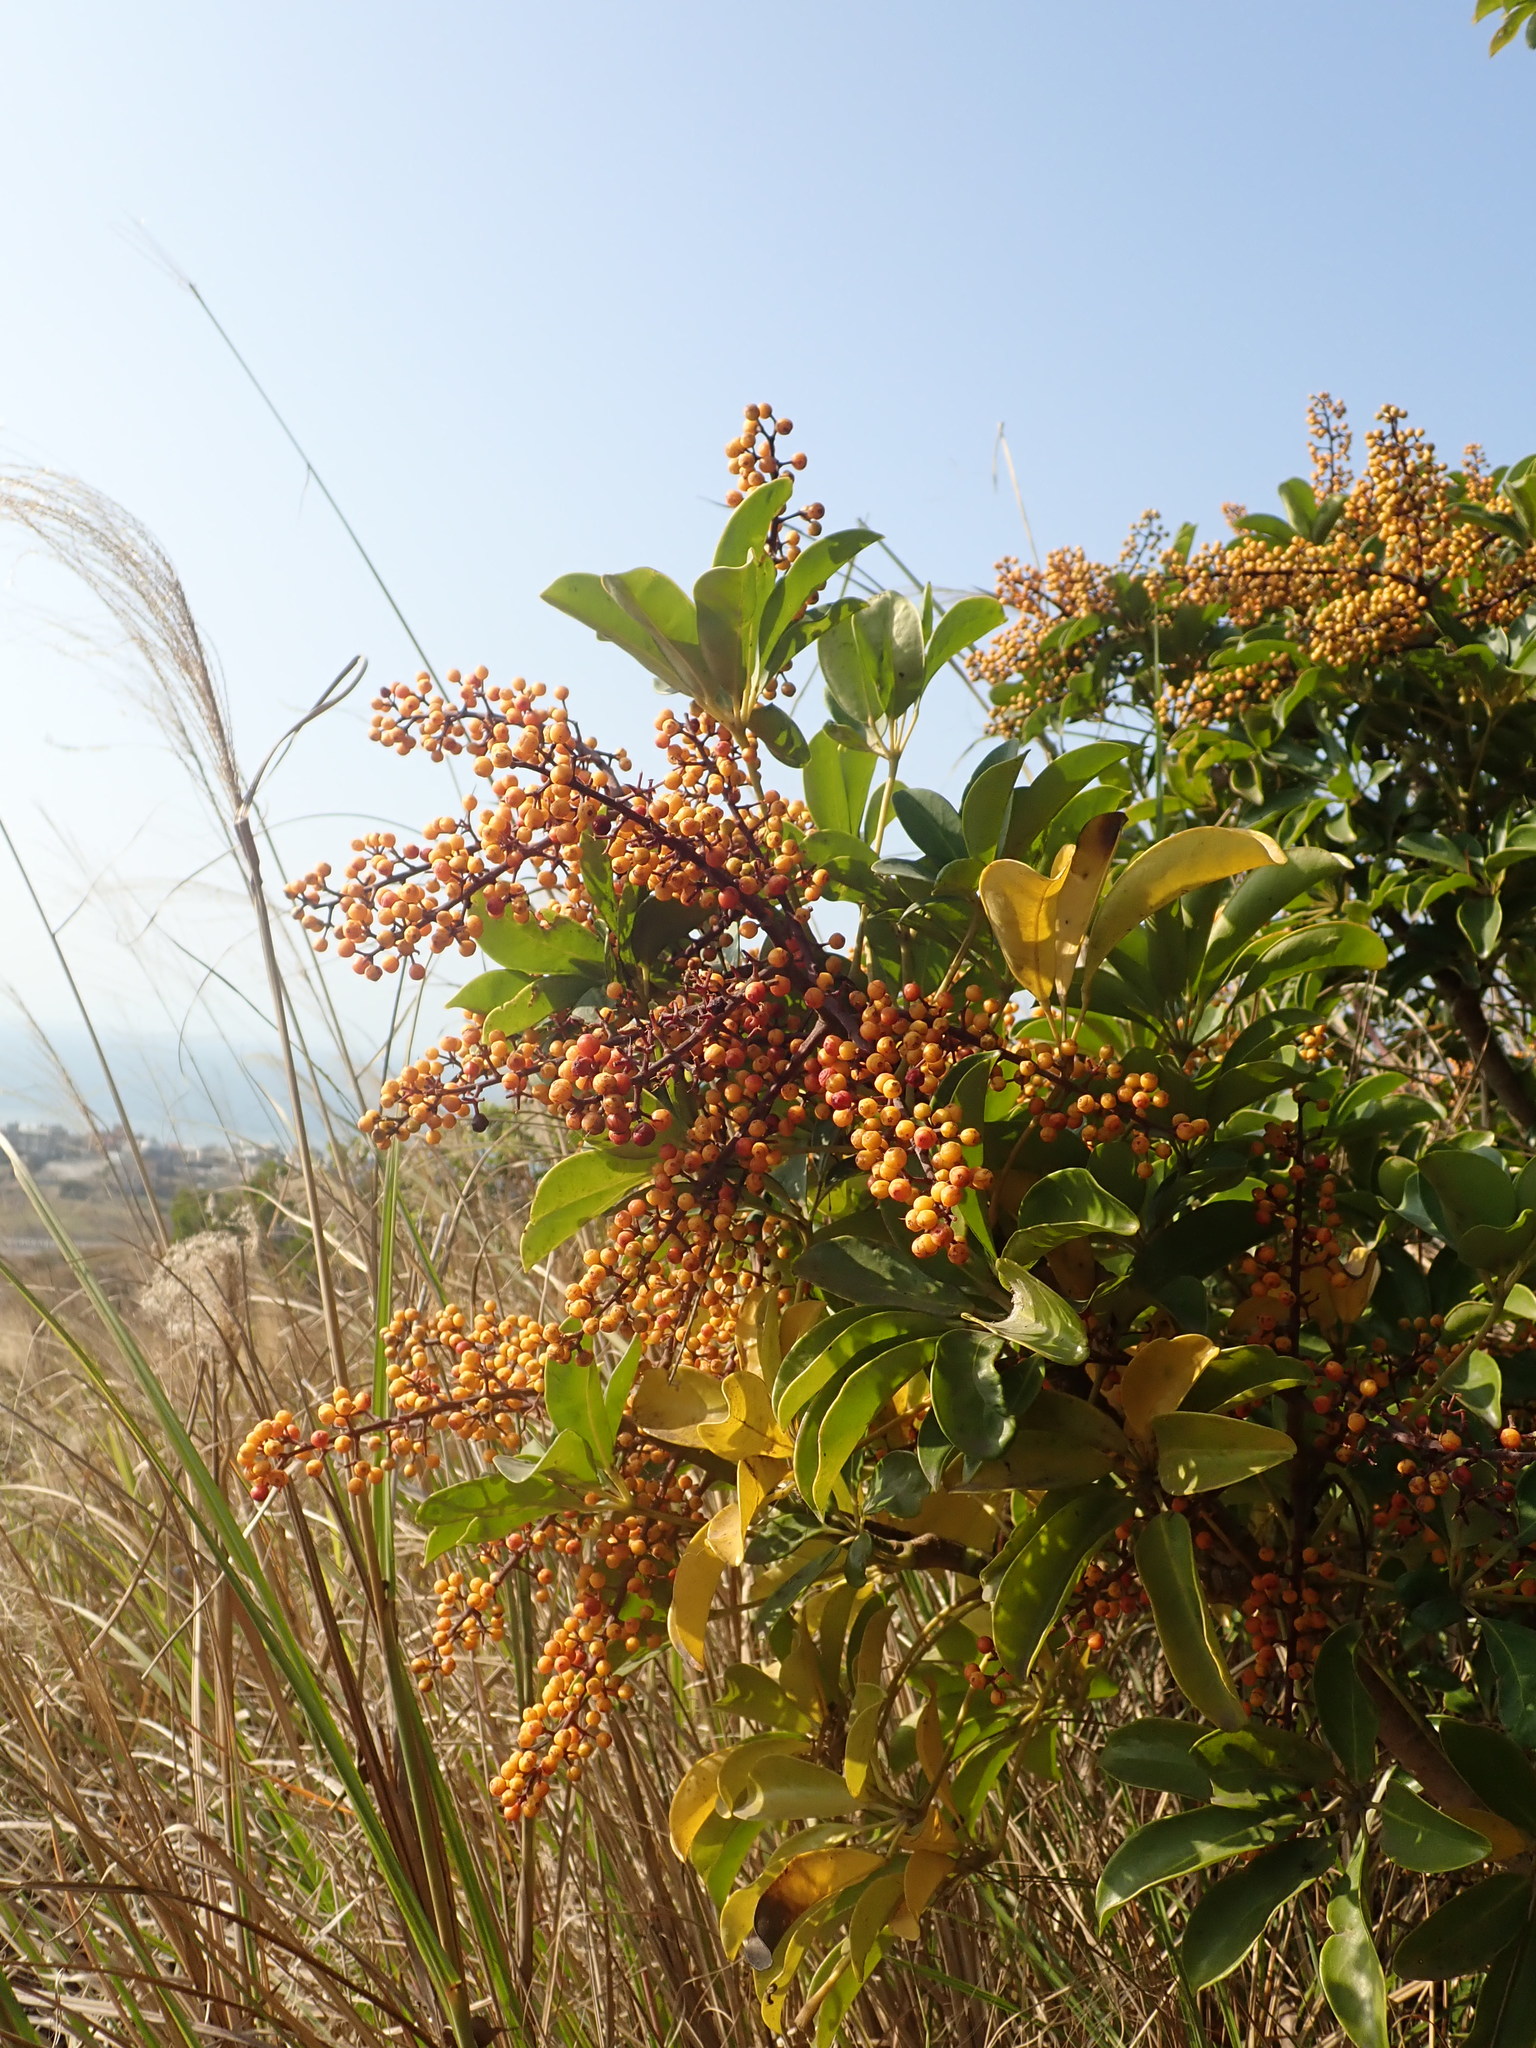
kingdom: Plantae
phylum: Tracheophyta
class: Magnoliopsida
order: Apiales
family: Araliaceae
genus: Heptapleurum
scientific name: Heptapleurum arboricola
